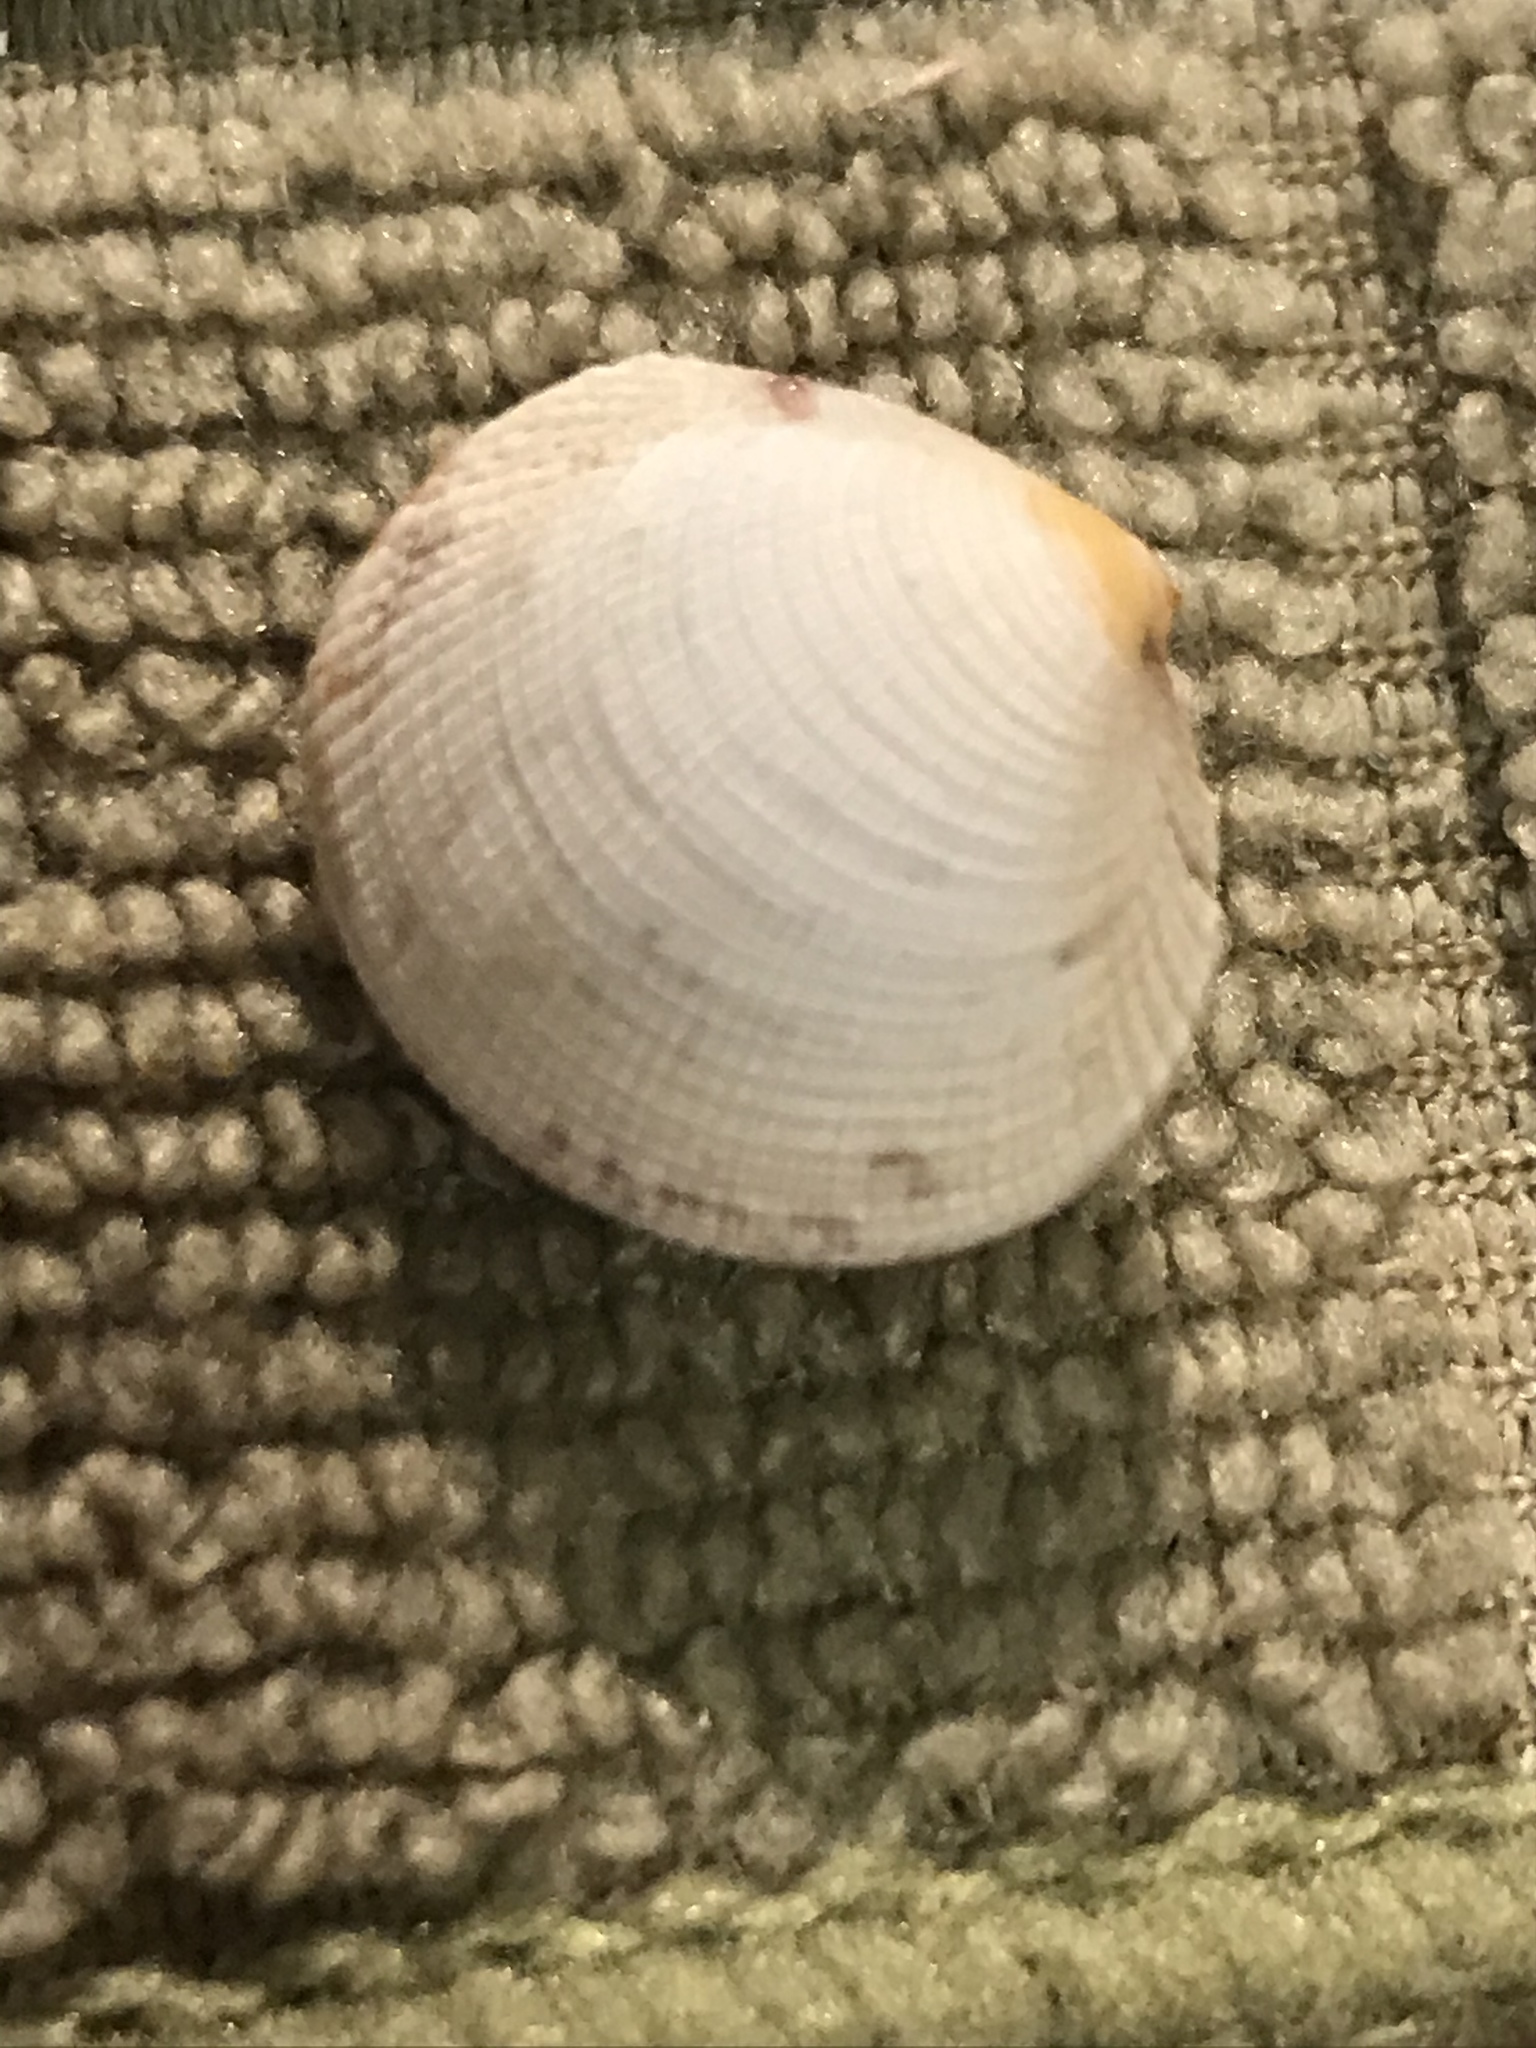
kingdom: Animalia
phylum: Mollusca
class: Bivalvia
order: Venerida
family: Veneridae
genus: Leukoma
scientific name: Leukoma staminea
